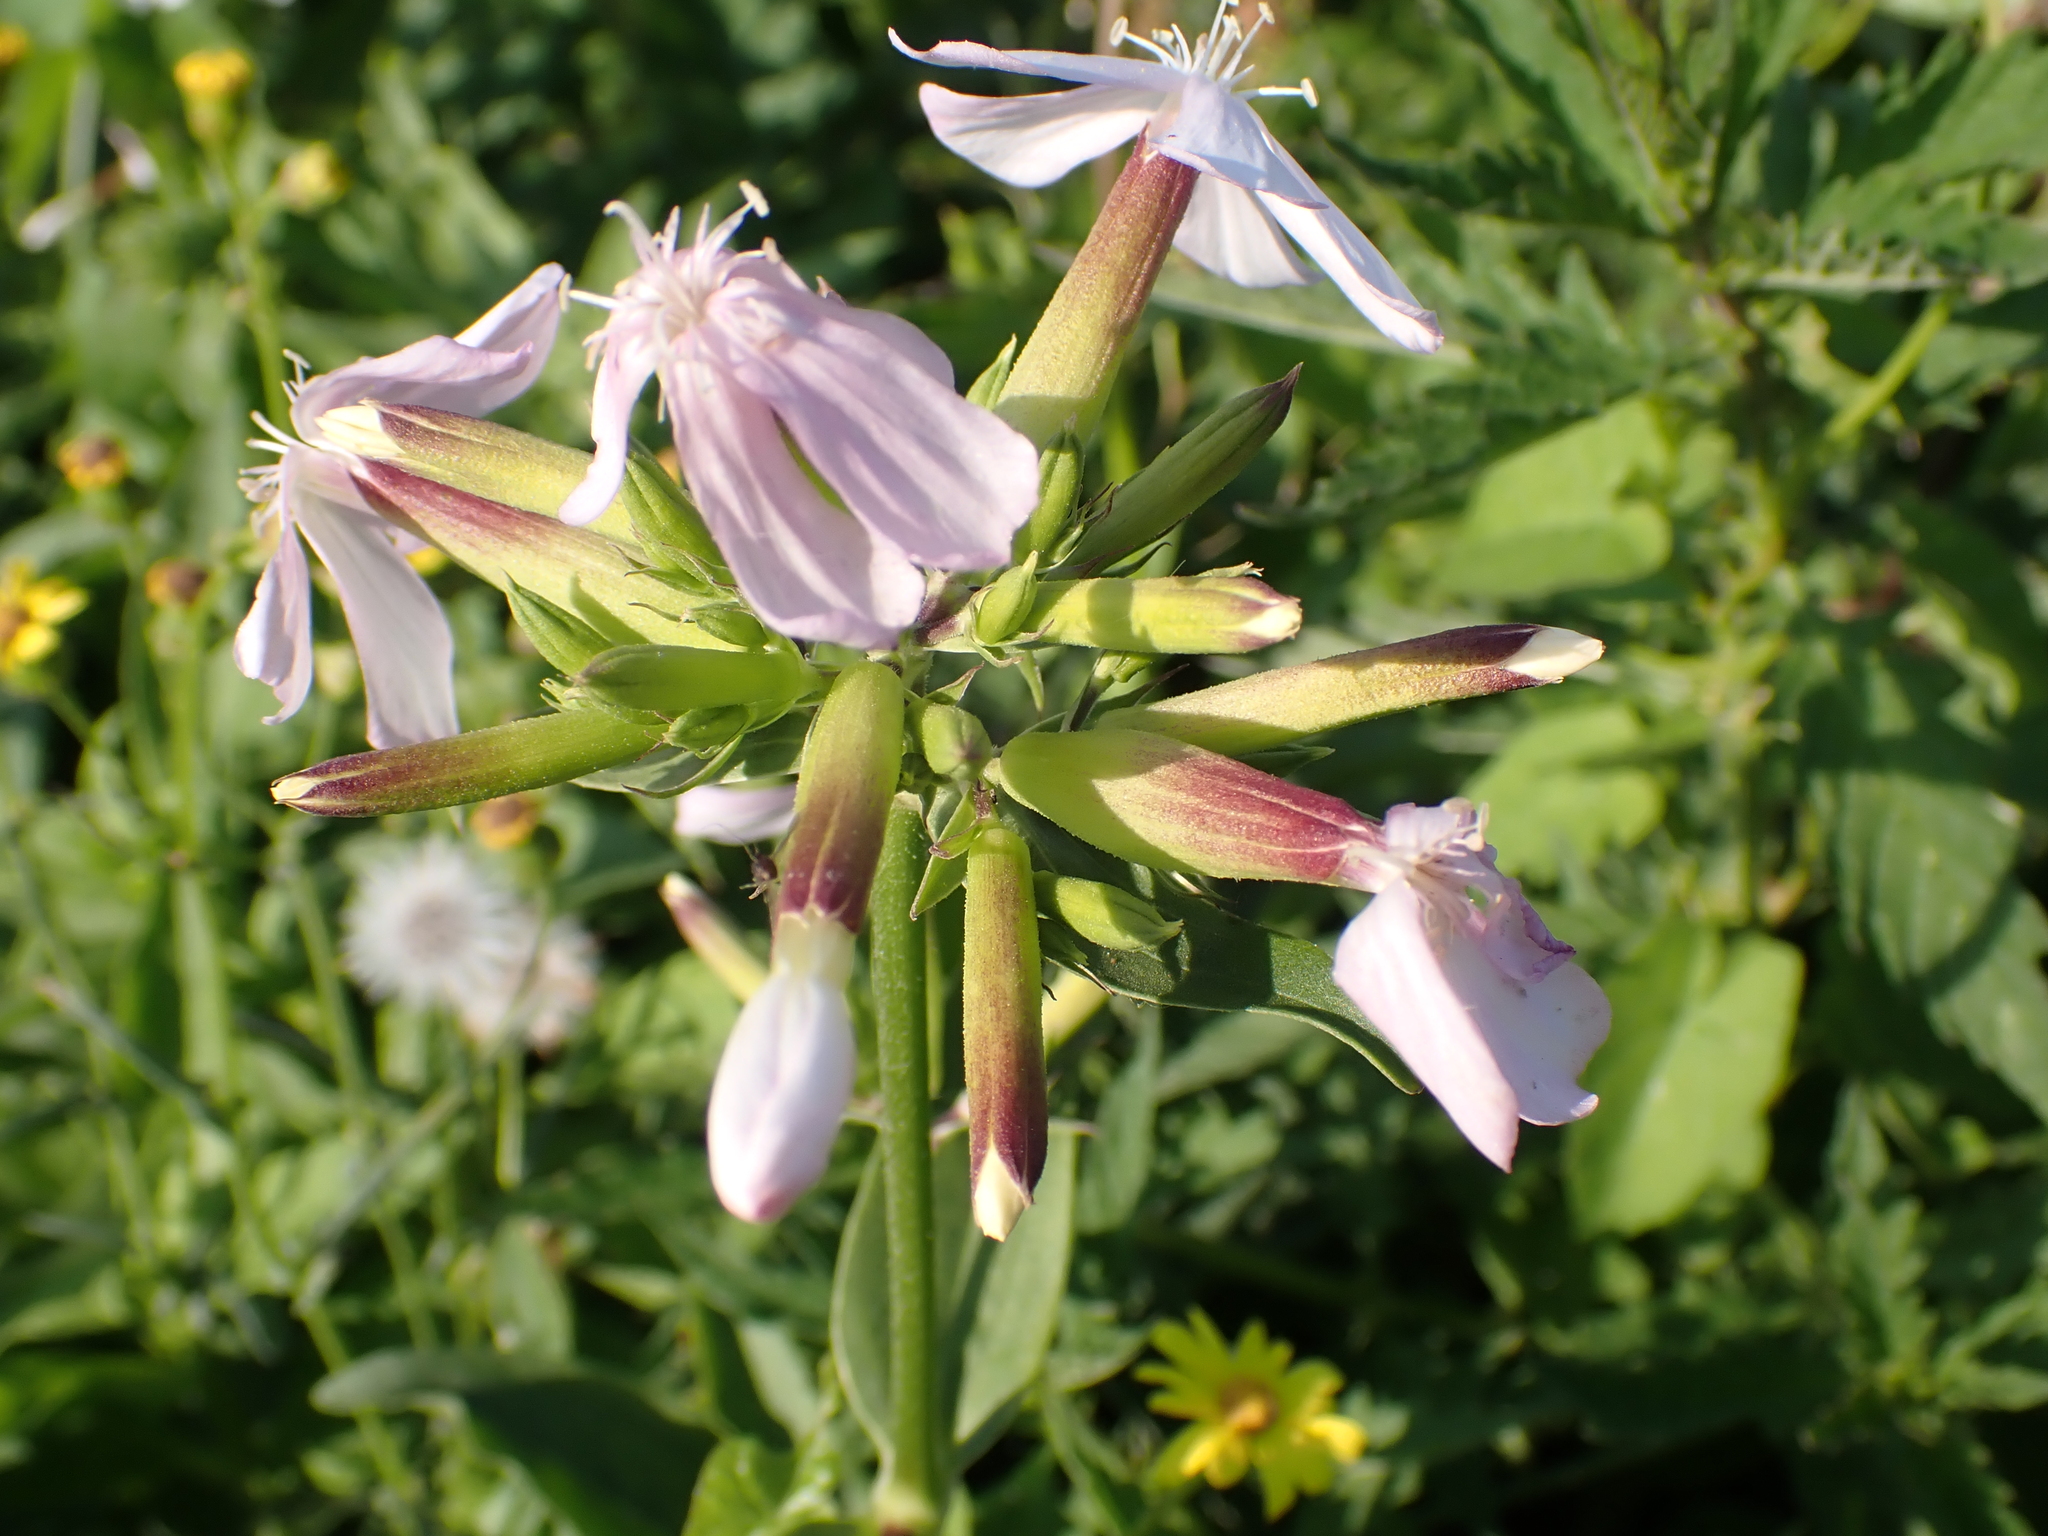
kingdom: Plantae
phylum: Tracheophyta
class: Magnoliopsida
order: Caryophyllales
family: Caryophyllaceae
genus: Saponaria
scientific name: Saponaria officinalis
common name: Soapwort
